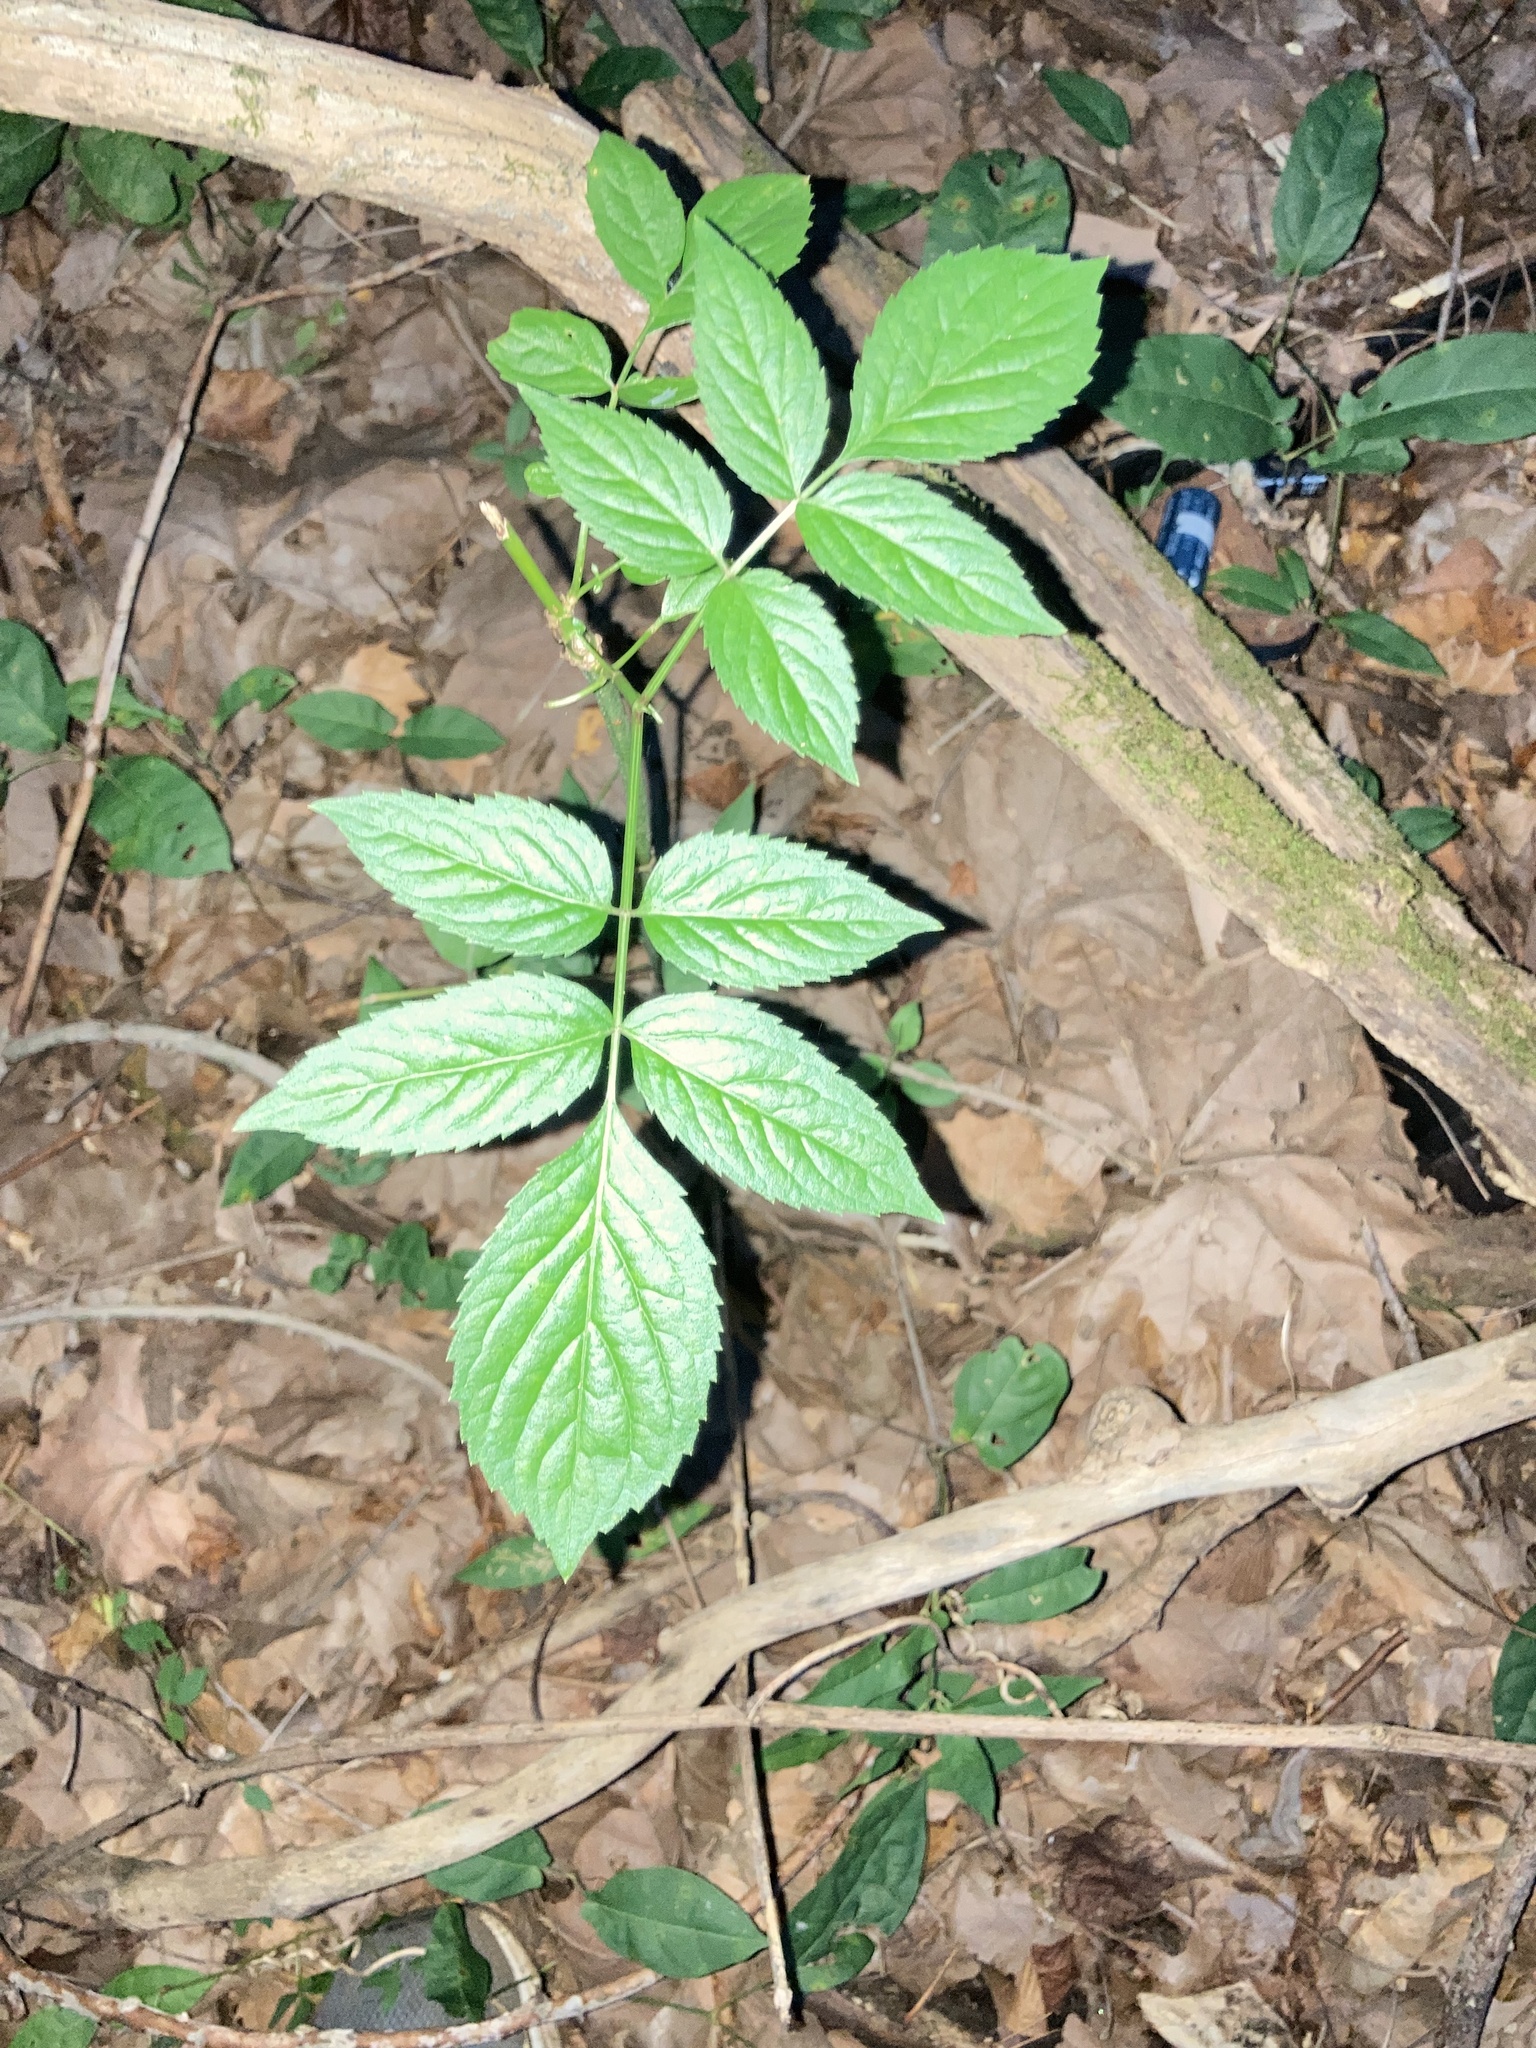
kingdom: Plantae
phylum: Tracheophyta
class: Magnoliopsida
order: Dipsacales
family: Viburnaceae
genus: Sambucus
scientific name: Sambucus canadensis
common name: American elder
